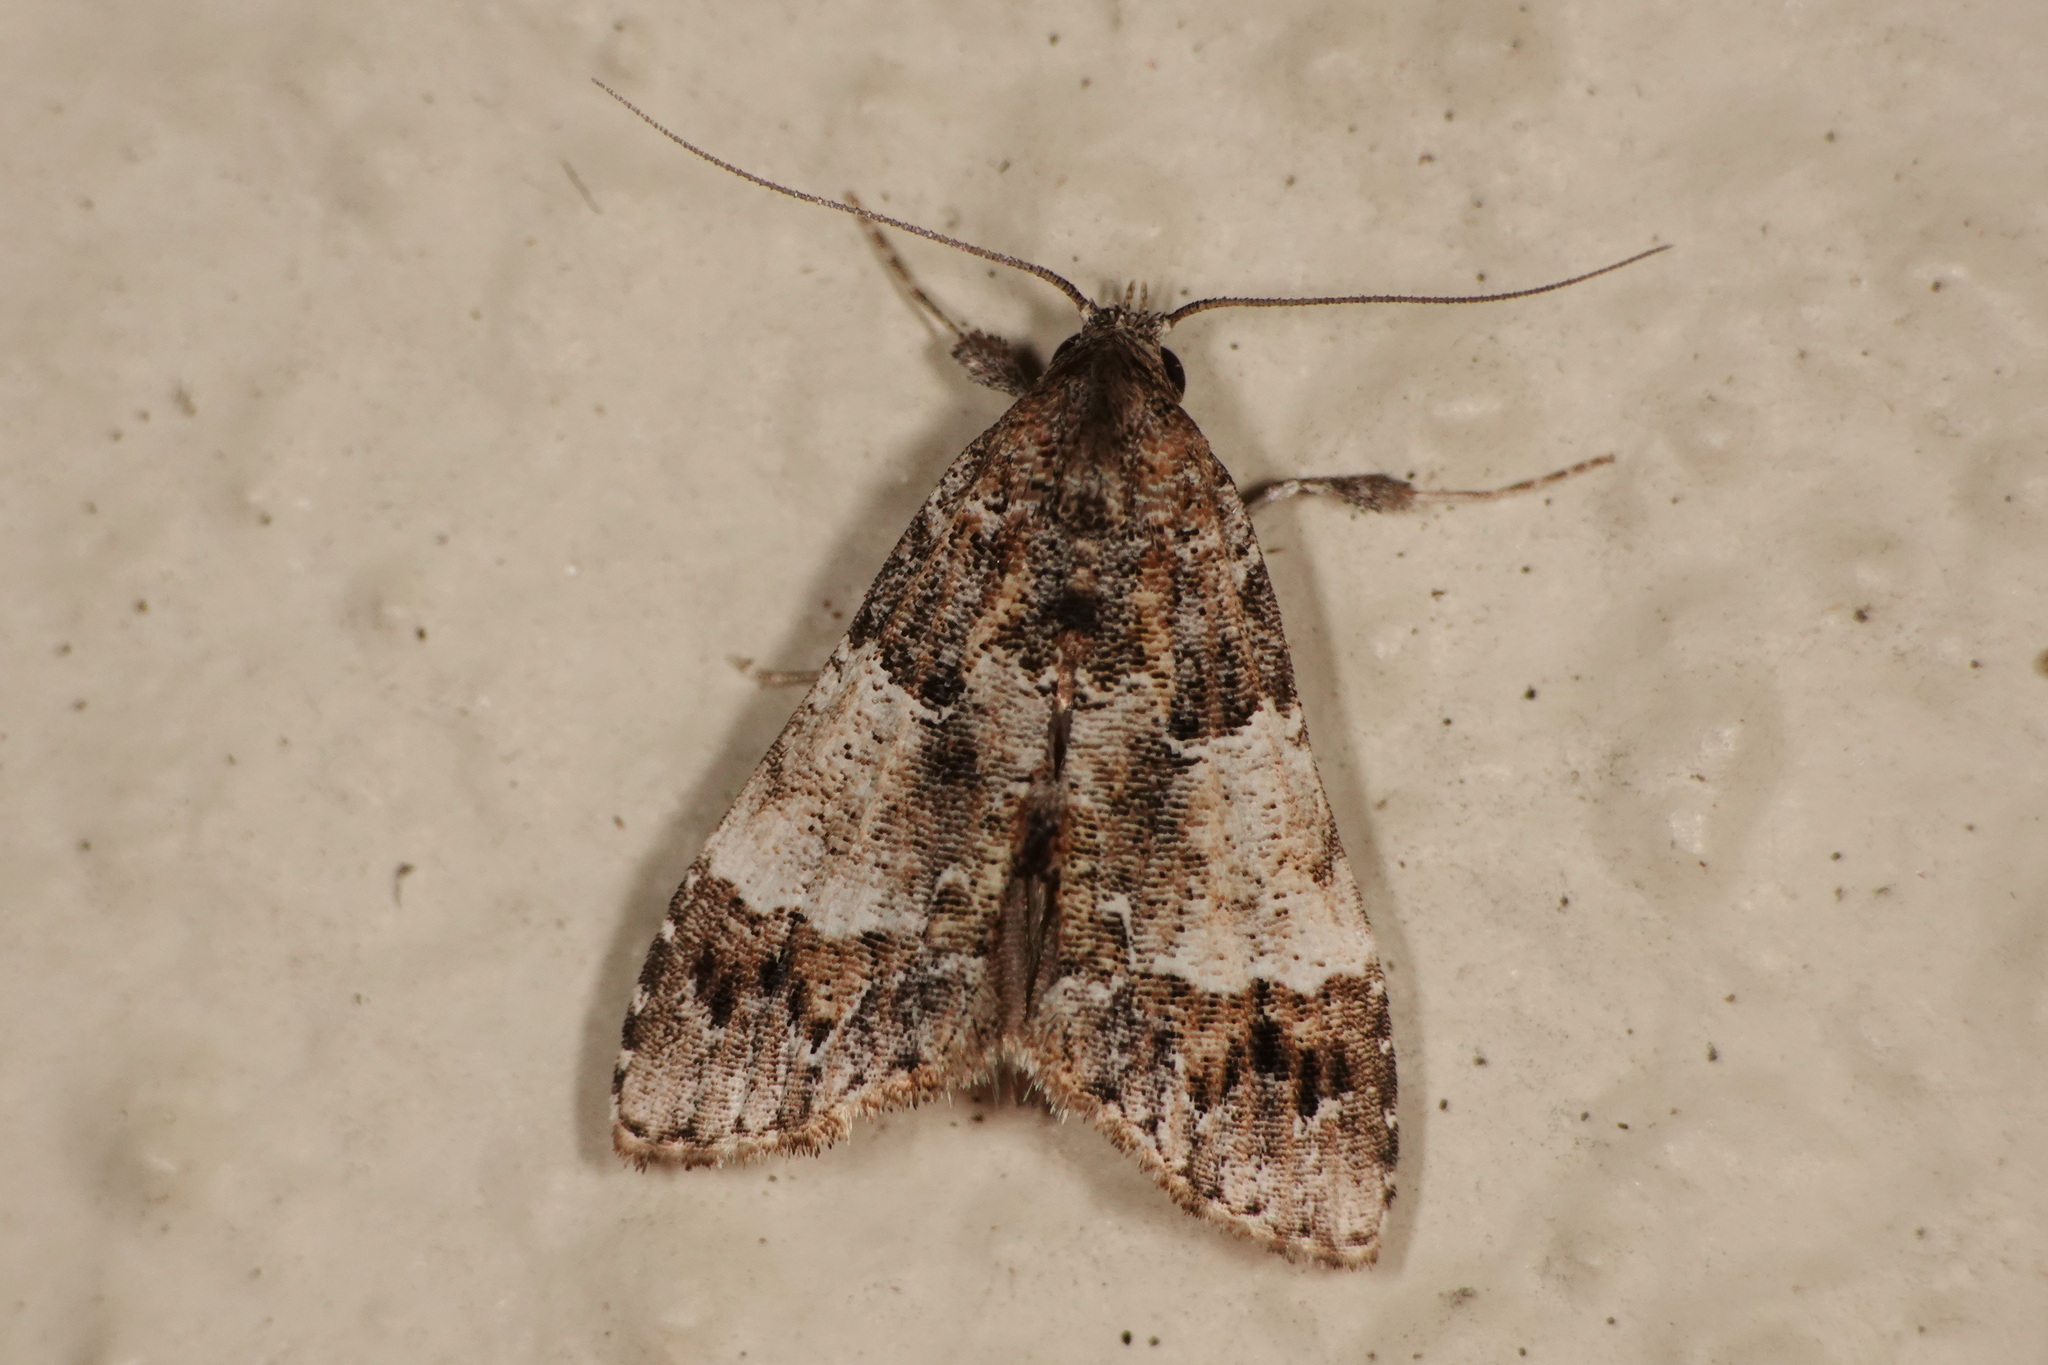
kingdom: Animalia
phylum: Arthropoda
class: Insecta
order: Lepidoptera
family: Erebidae
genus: Arrade
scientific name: Arrade destituta
